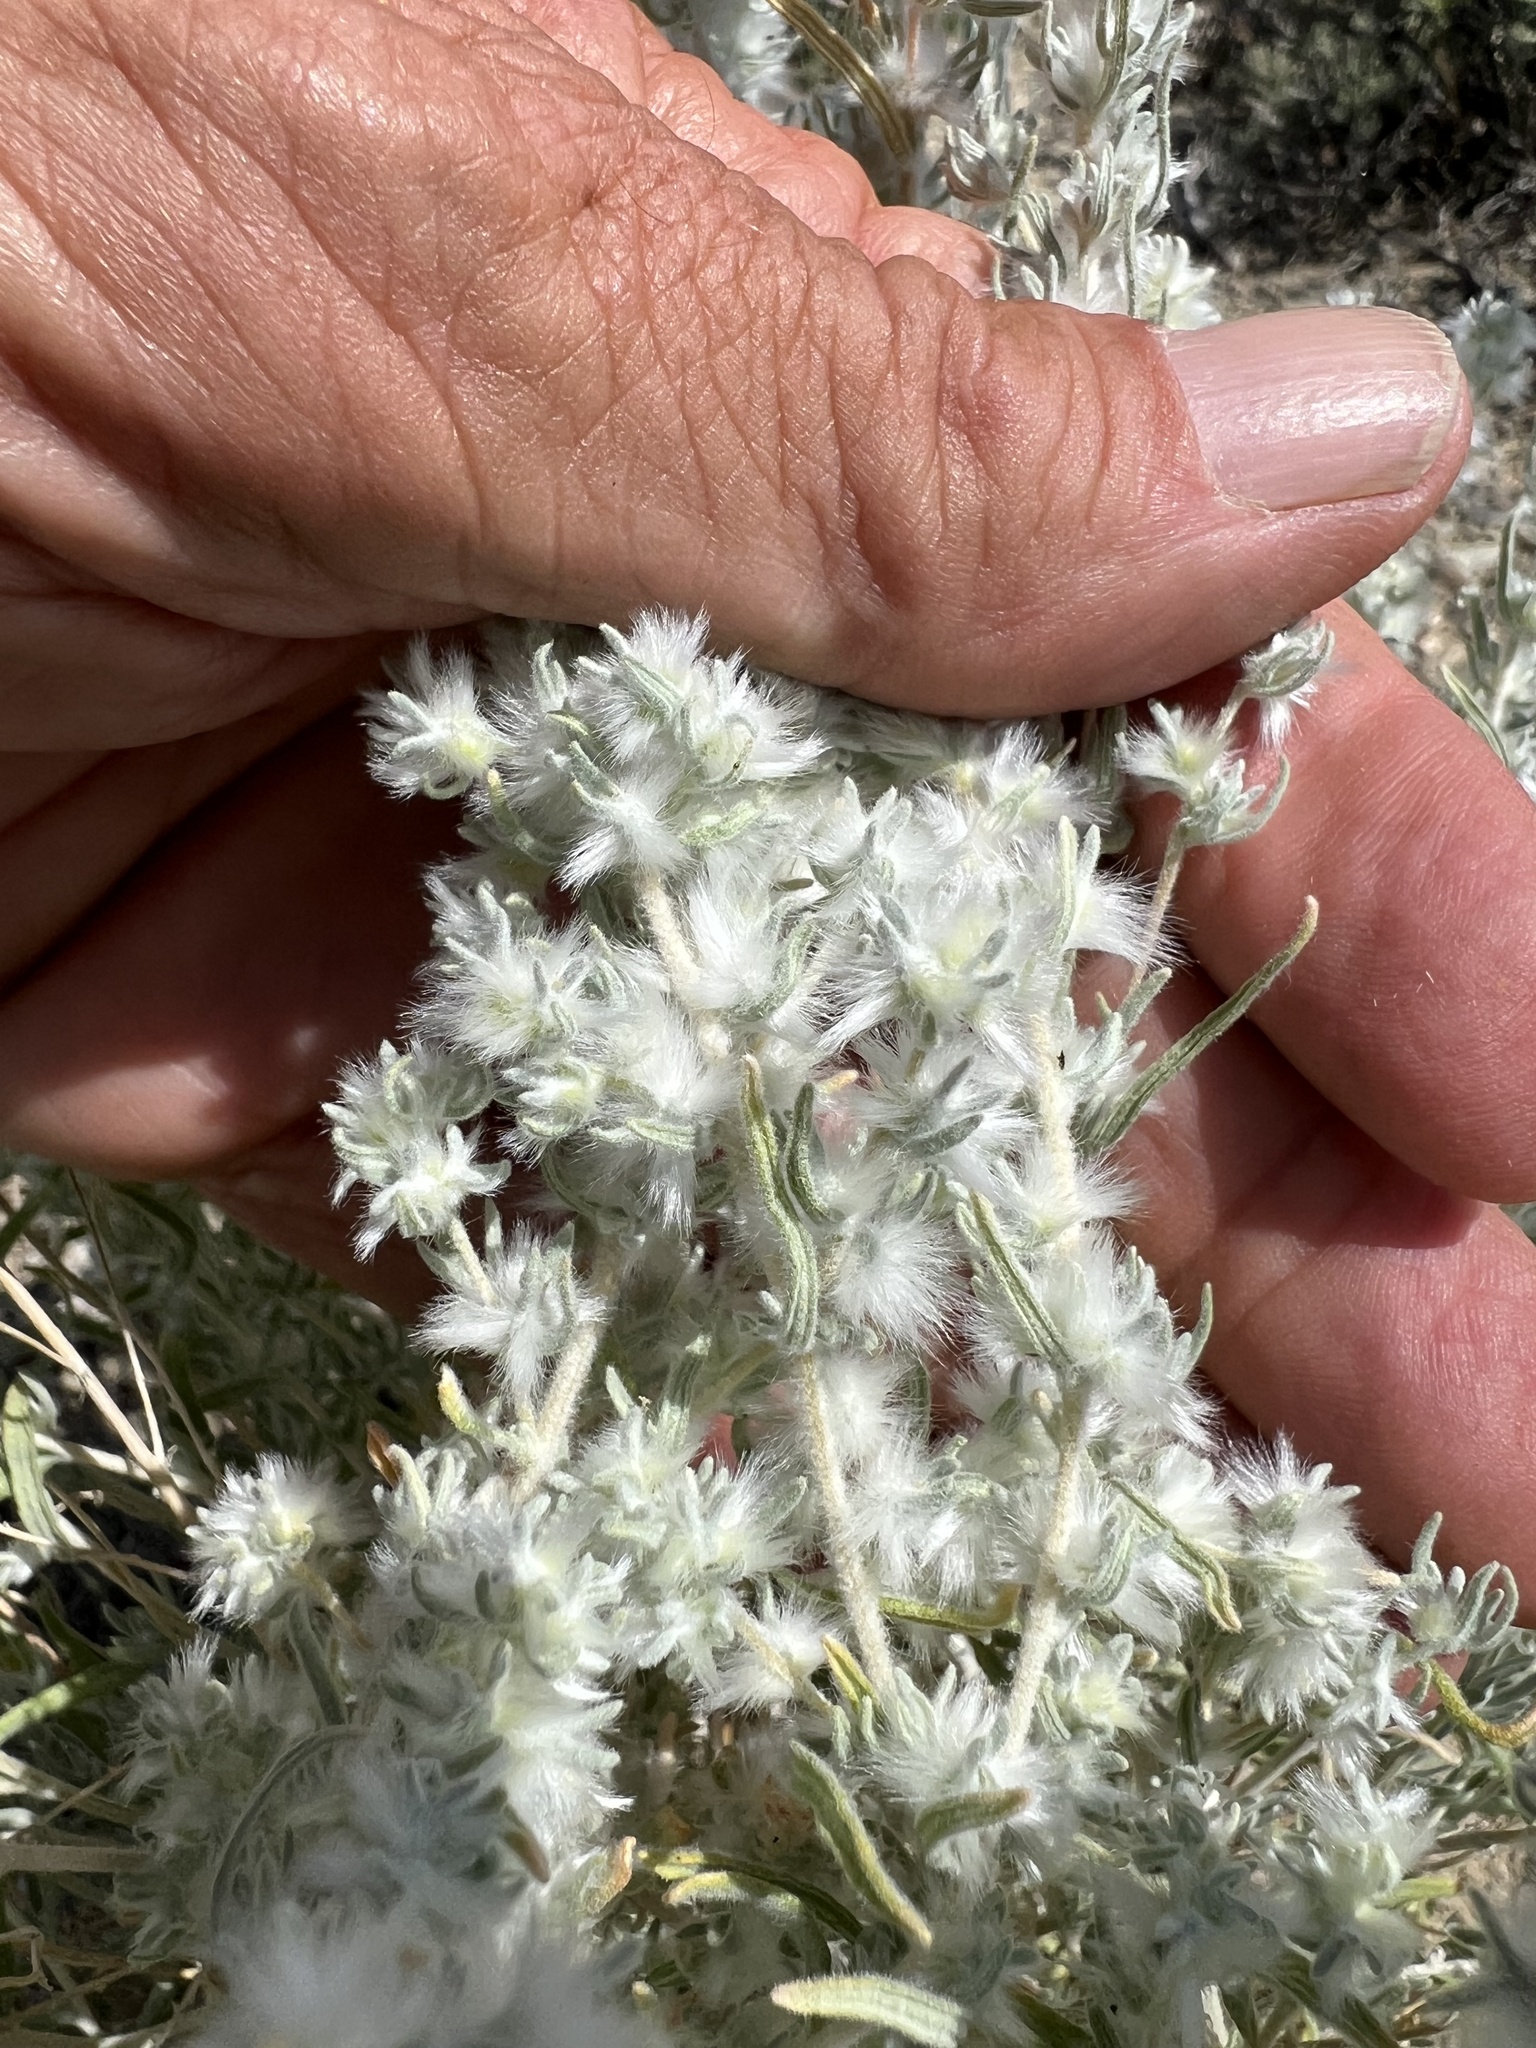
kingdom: Plantae
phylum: Tracheophyta
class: Magnoliopsida
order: Caryophyllales
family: Amaranthaceae
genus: Krascheninnikovia
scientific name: Krascheninnikovia lanata
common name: Winterfat
